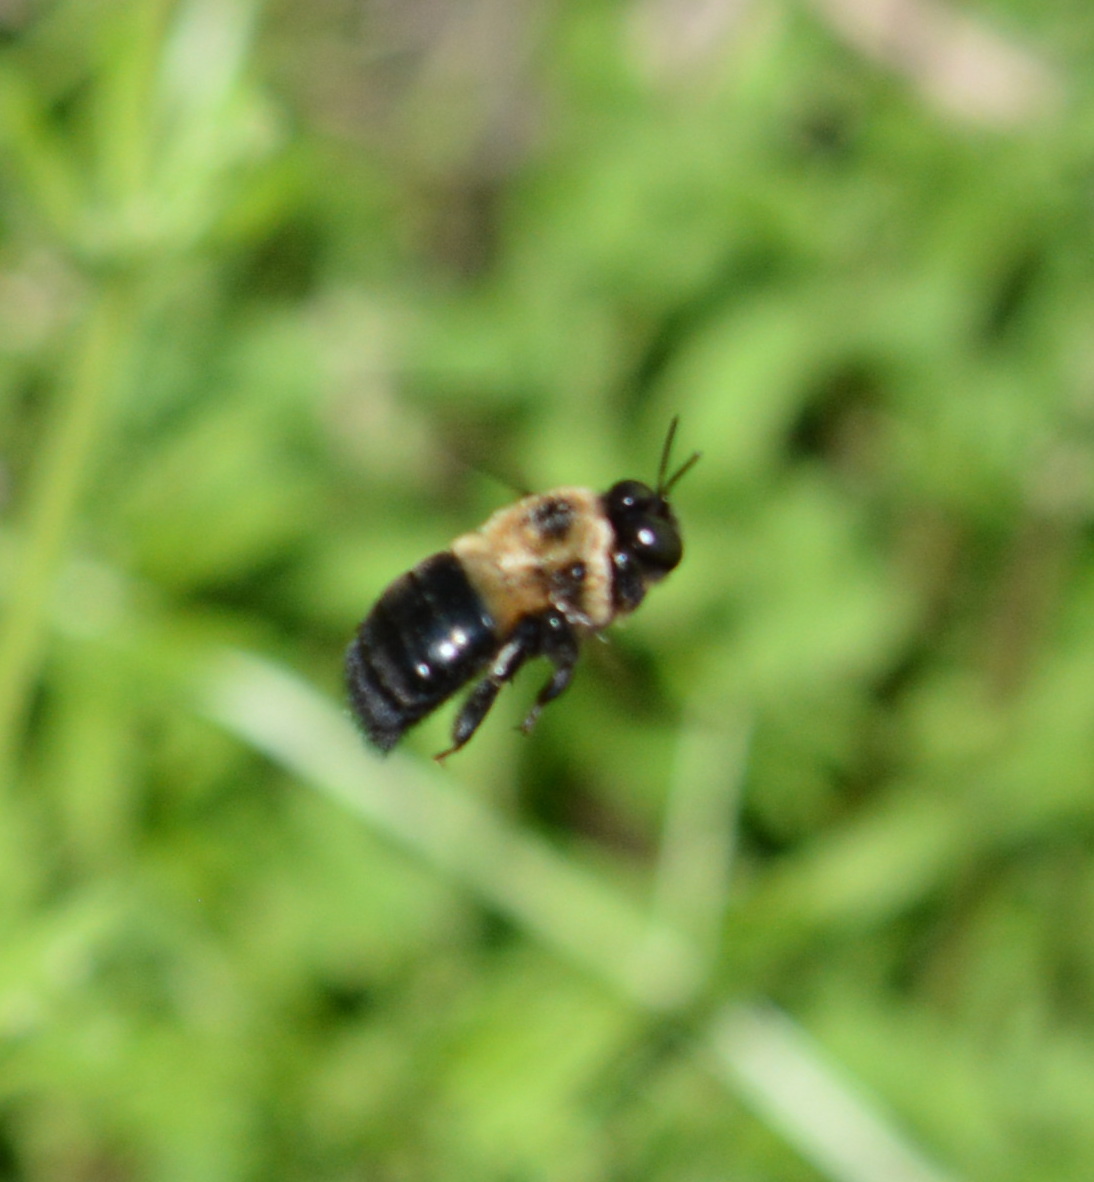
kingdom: Animalia
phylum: Arthropoda
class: Insecta
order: Hymenoptera
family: Apidae
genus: Xylocopa
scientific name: Xylocopa virginica
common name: Carpenter bee
